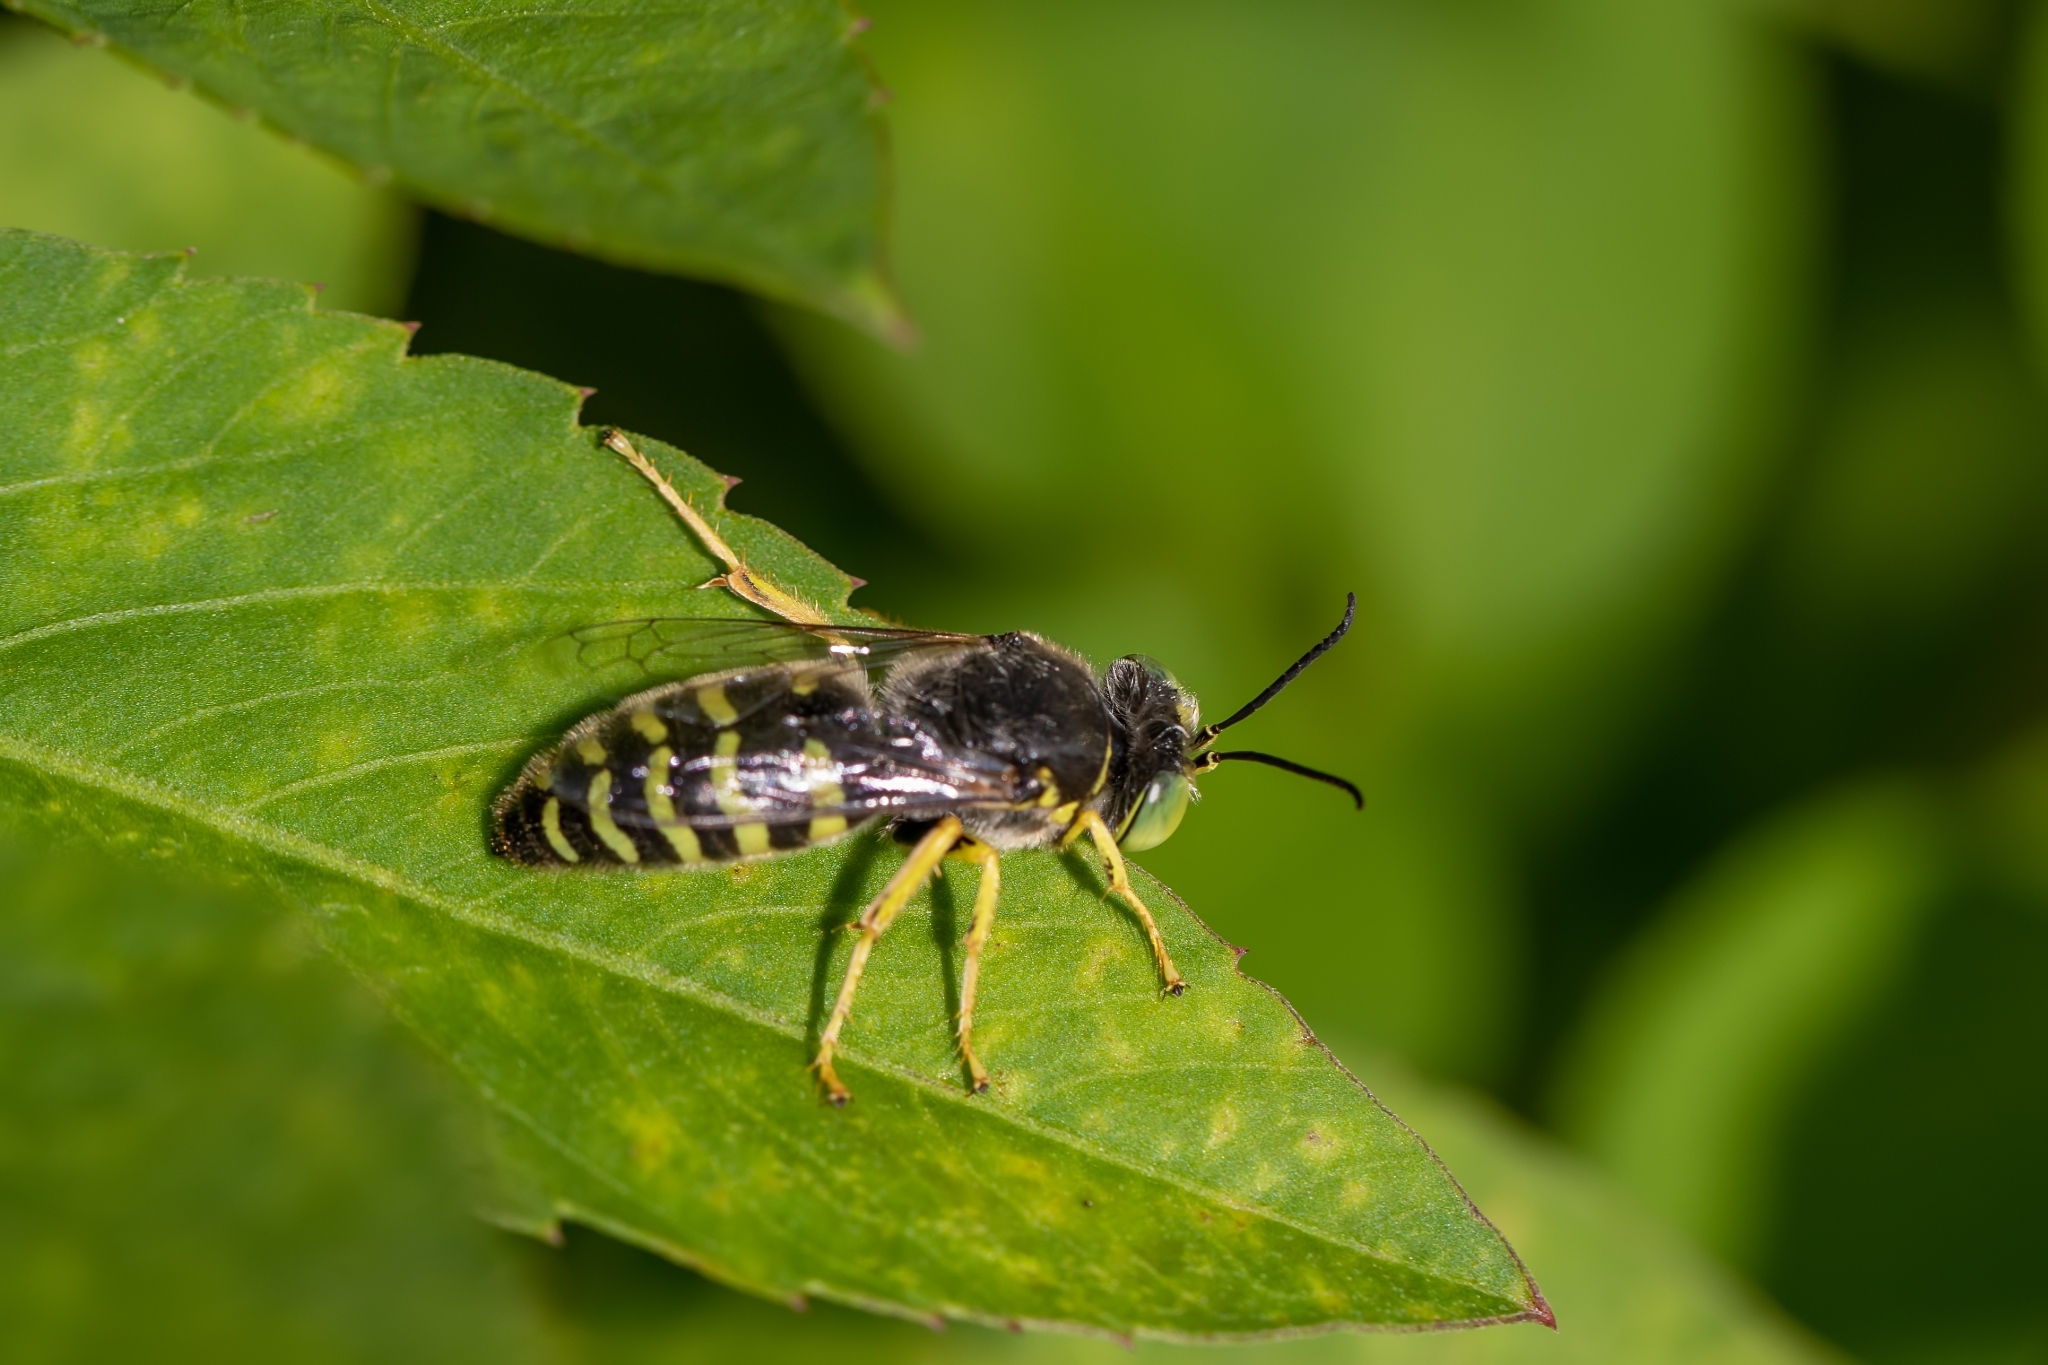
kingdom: Animalia
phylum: Arthropoda
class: Insecta
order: Hymenoptera
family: Crabronidae
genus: Bembix
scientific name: Bembix americana
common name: American sand wasp
